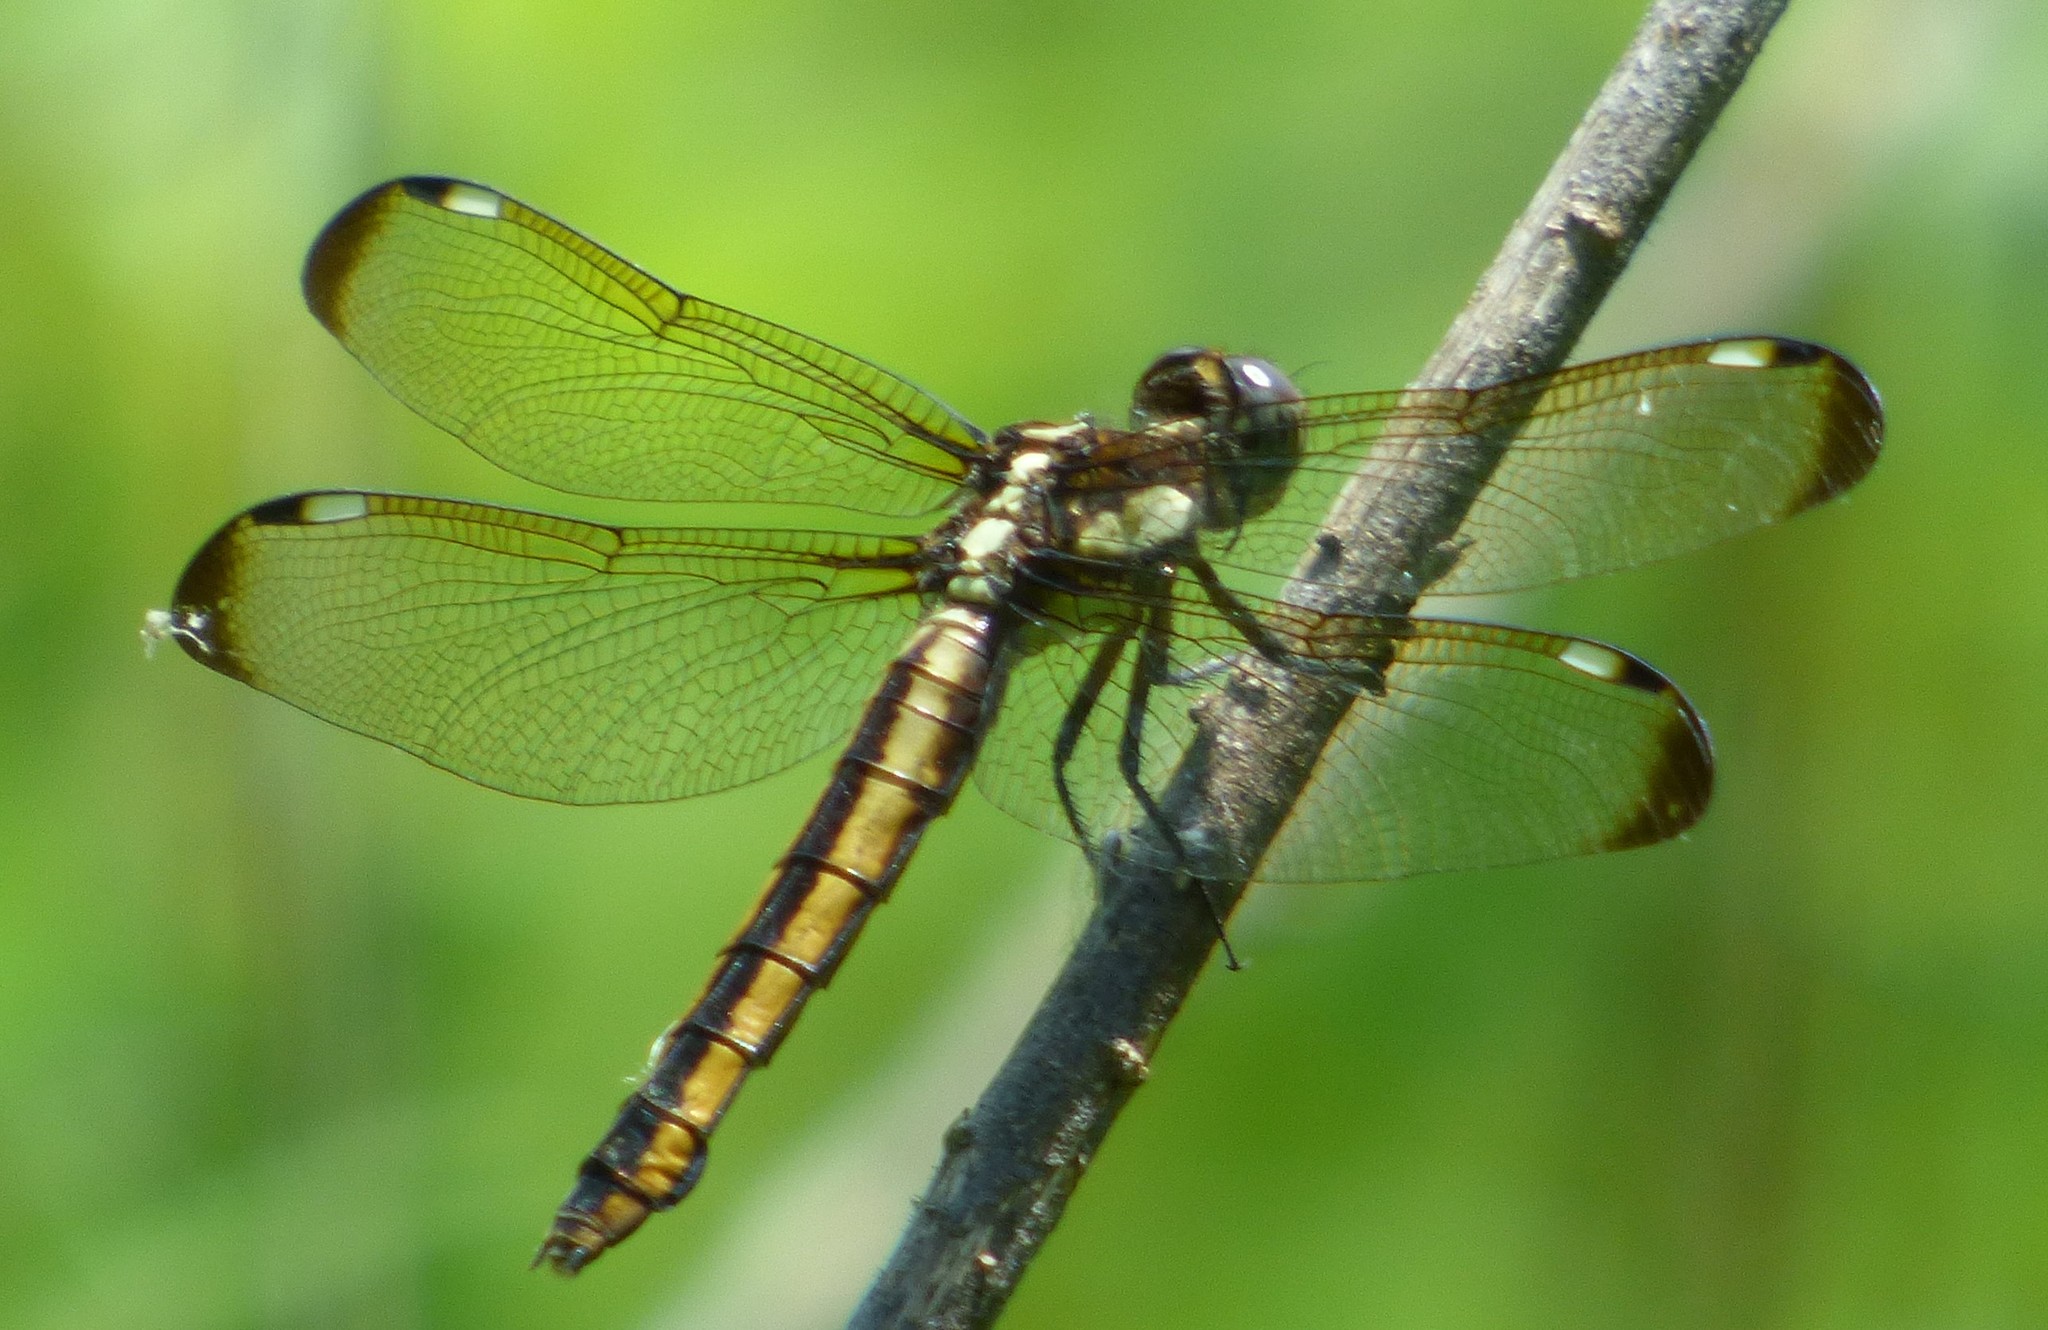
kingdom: Animalia
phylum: Arthropoda
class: Insecta
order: Odonata
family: Libellulidae
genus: Libellula
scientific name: Libellula cyanea
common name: Spangled skimmer
